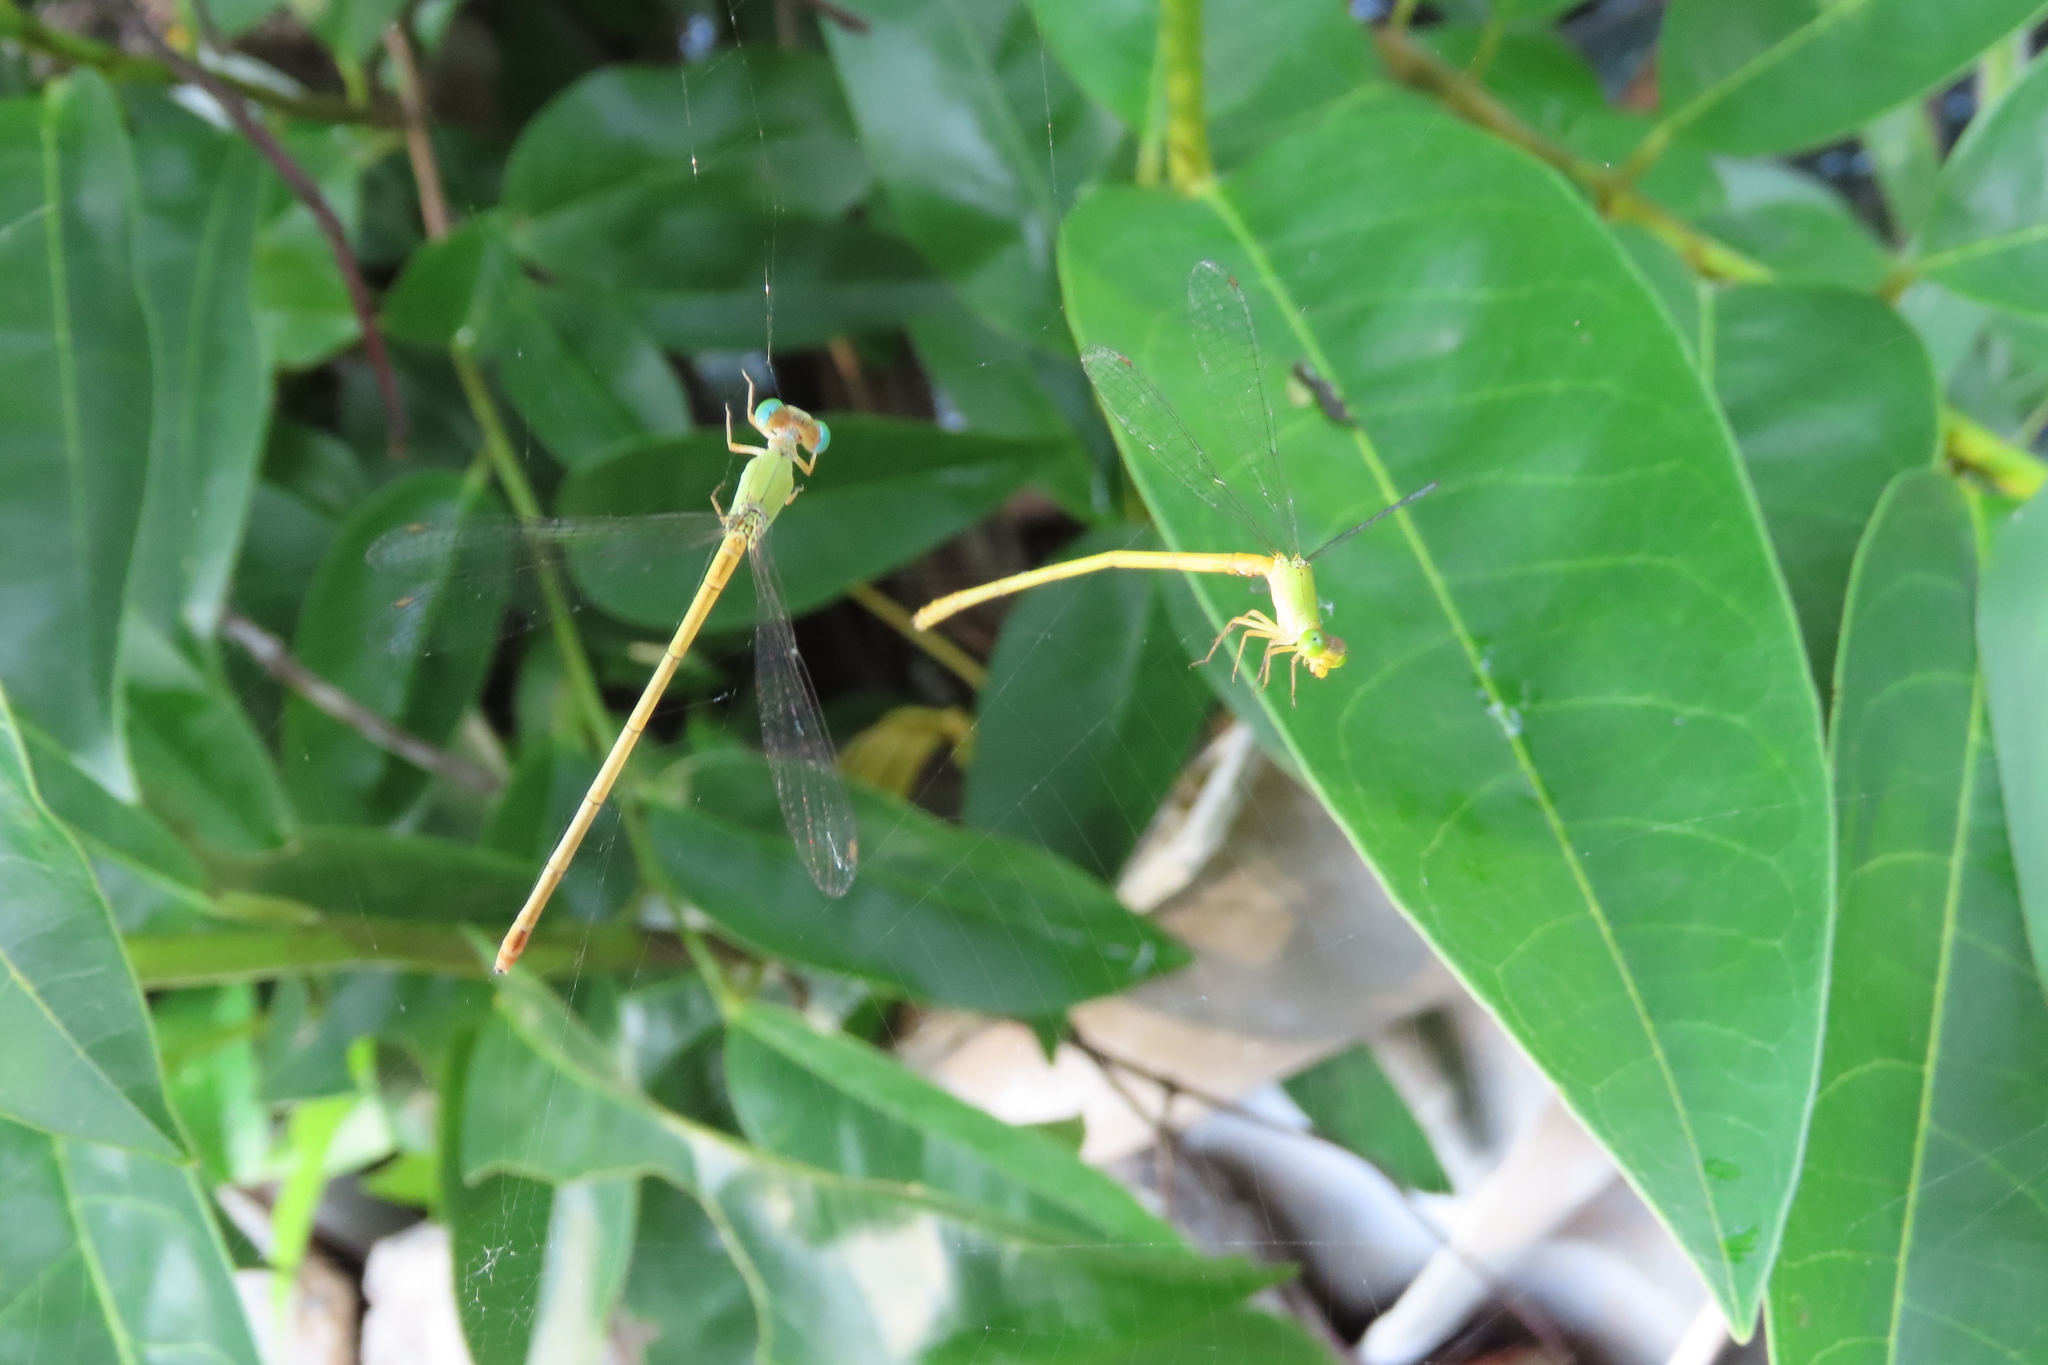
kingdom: Animalia
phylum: Arthropoda
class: Insecta
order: Odonata
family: Coenagrionidae
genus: Ceriagrion
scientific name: Ceriagrion coromandelianum
